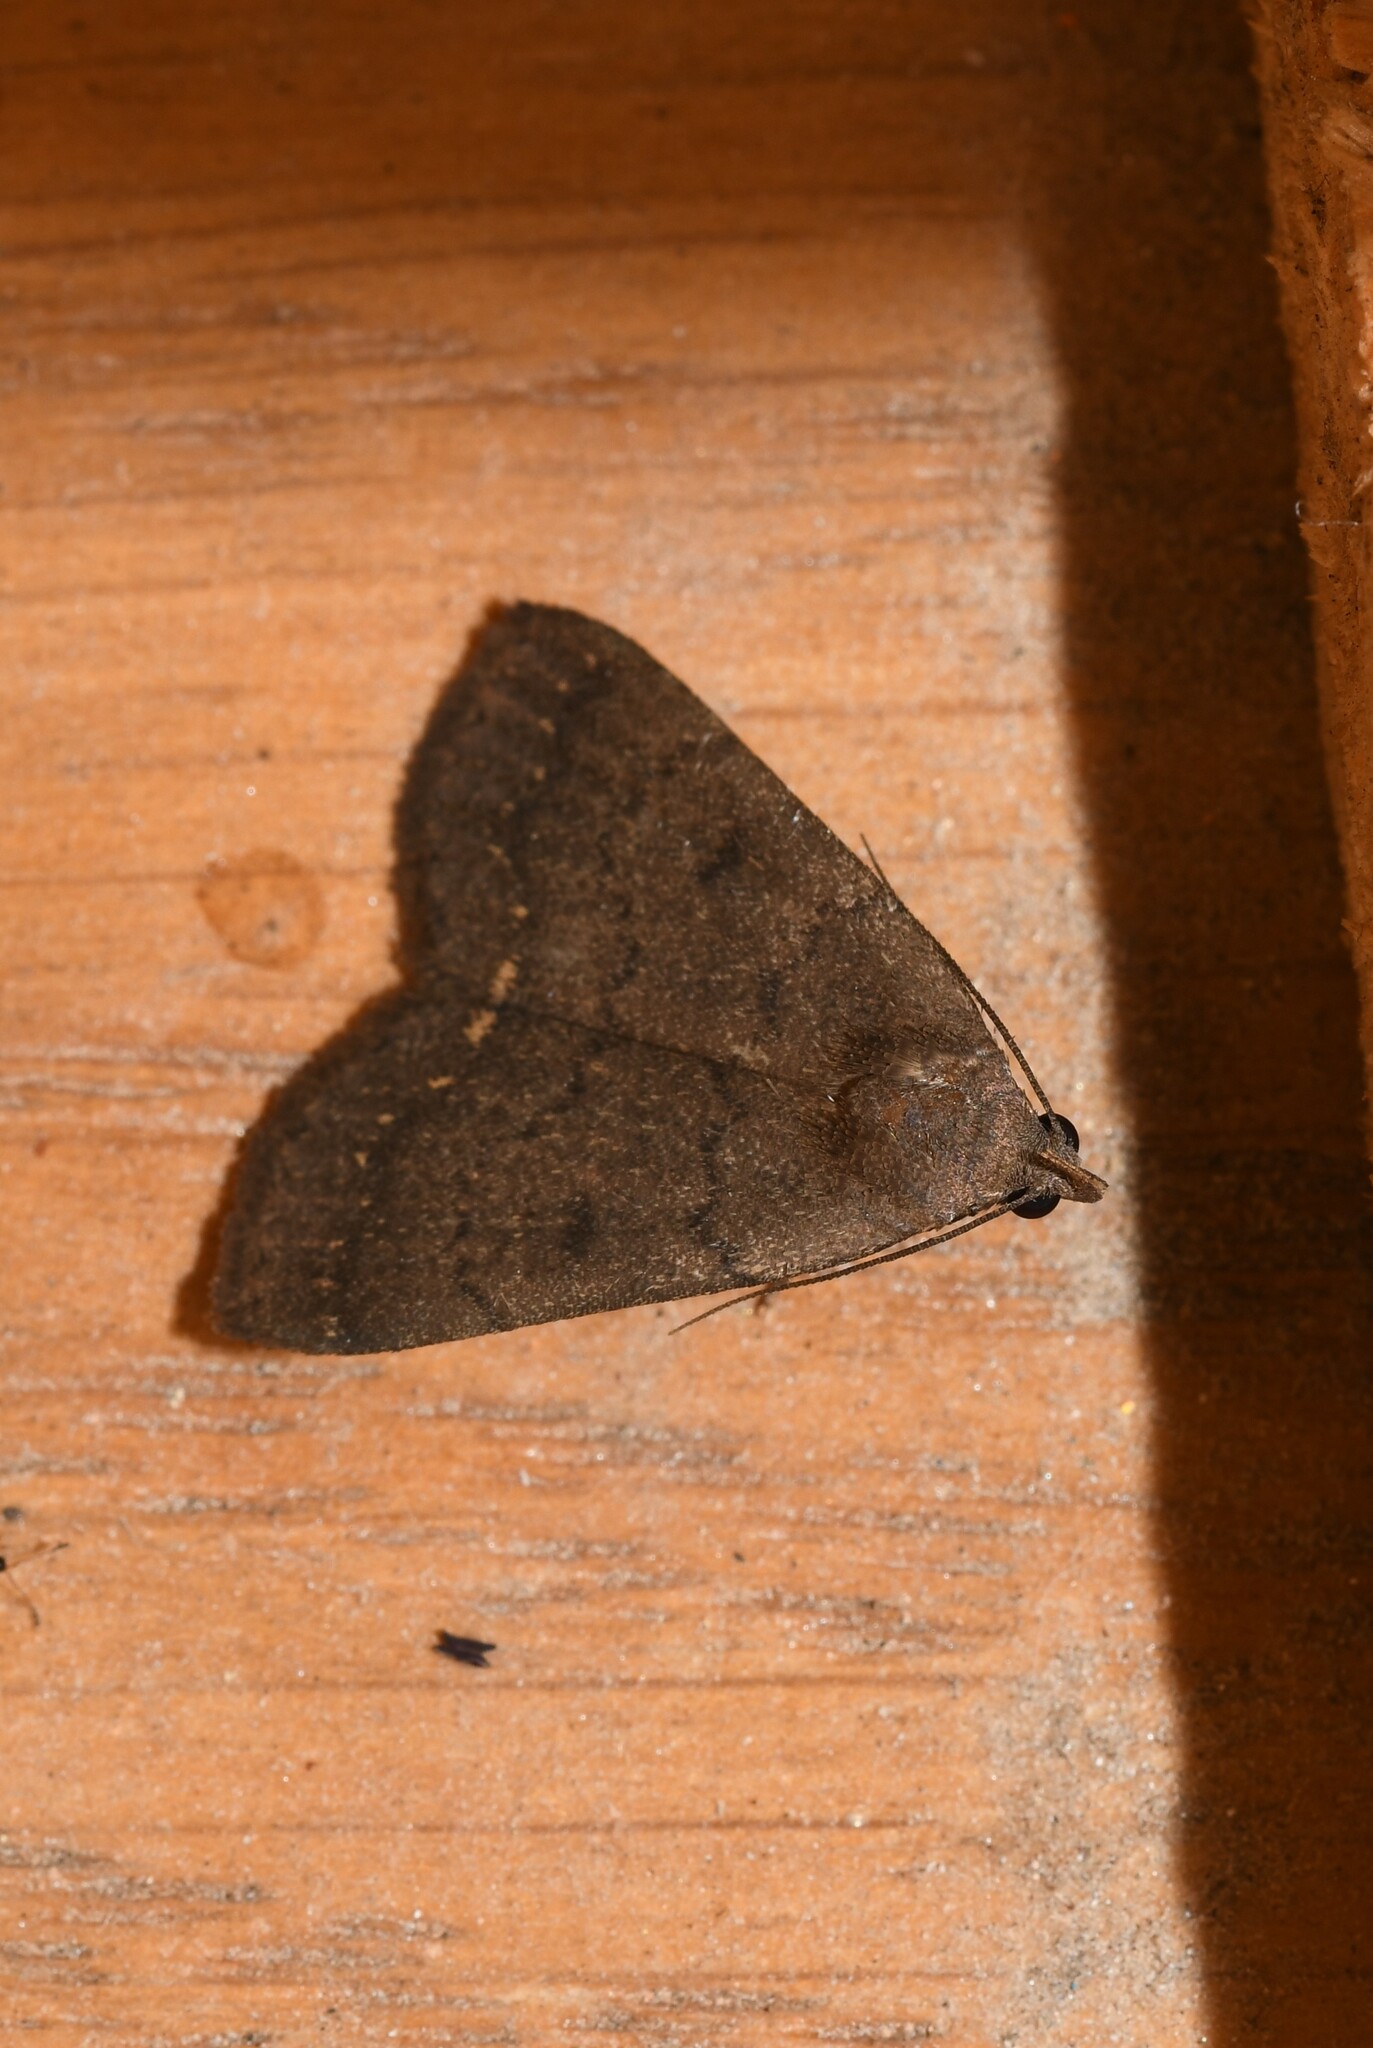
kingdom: Animalia
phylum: Arthropoda
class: Insecta
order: Lepidoptera
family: Erebidae
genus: Nodaria
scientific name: Nodaria nodosalis
